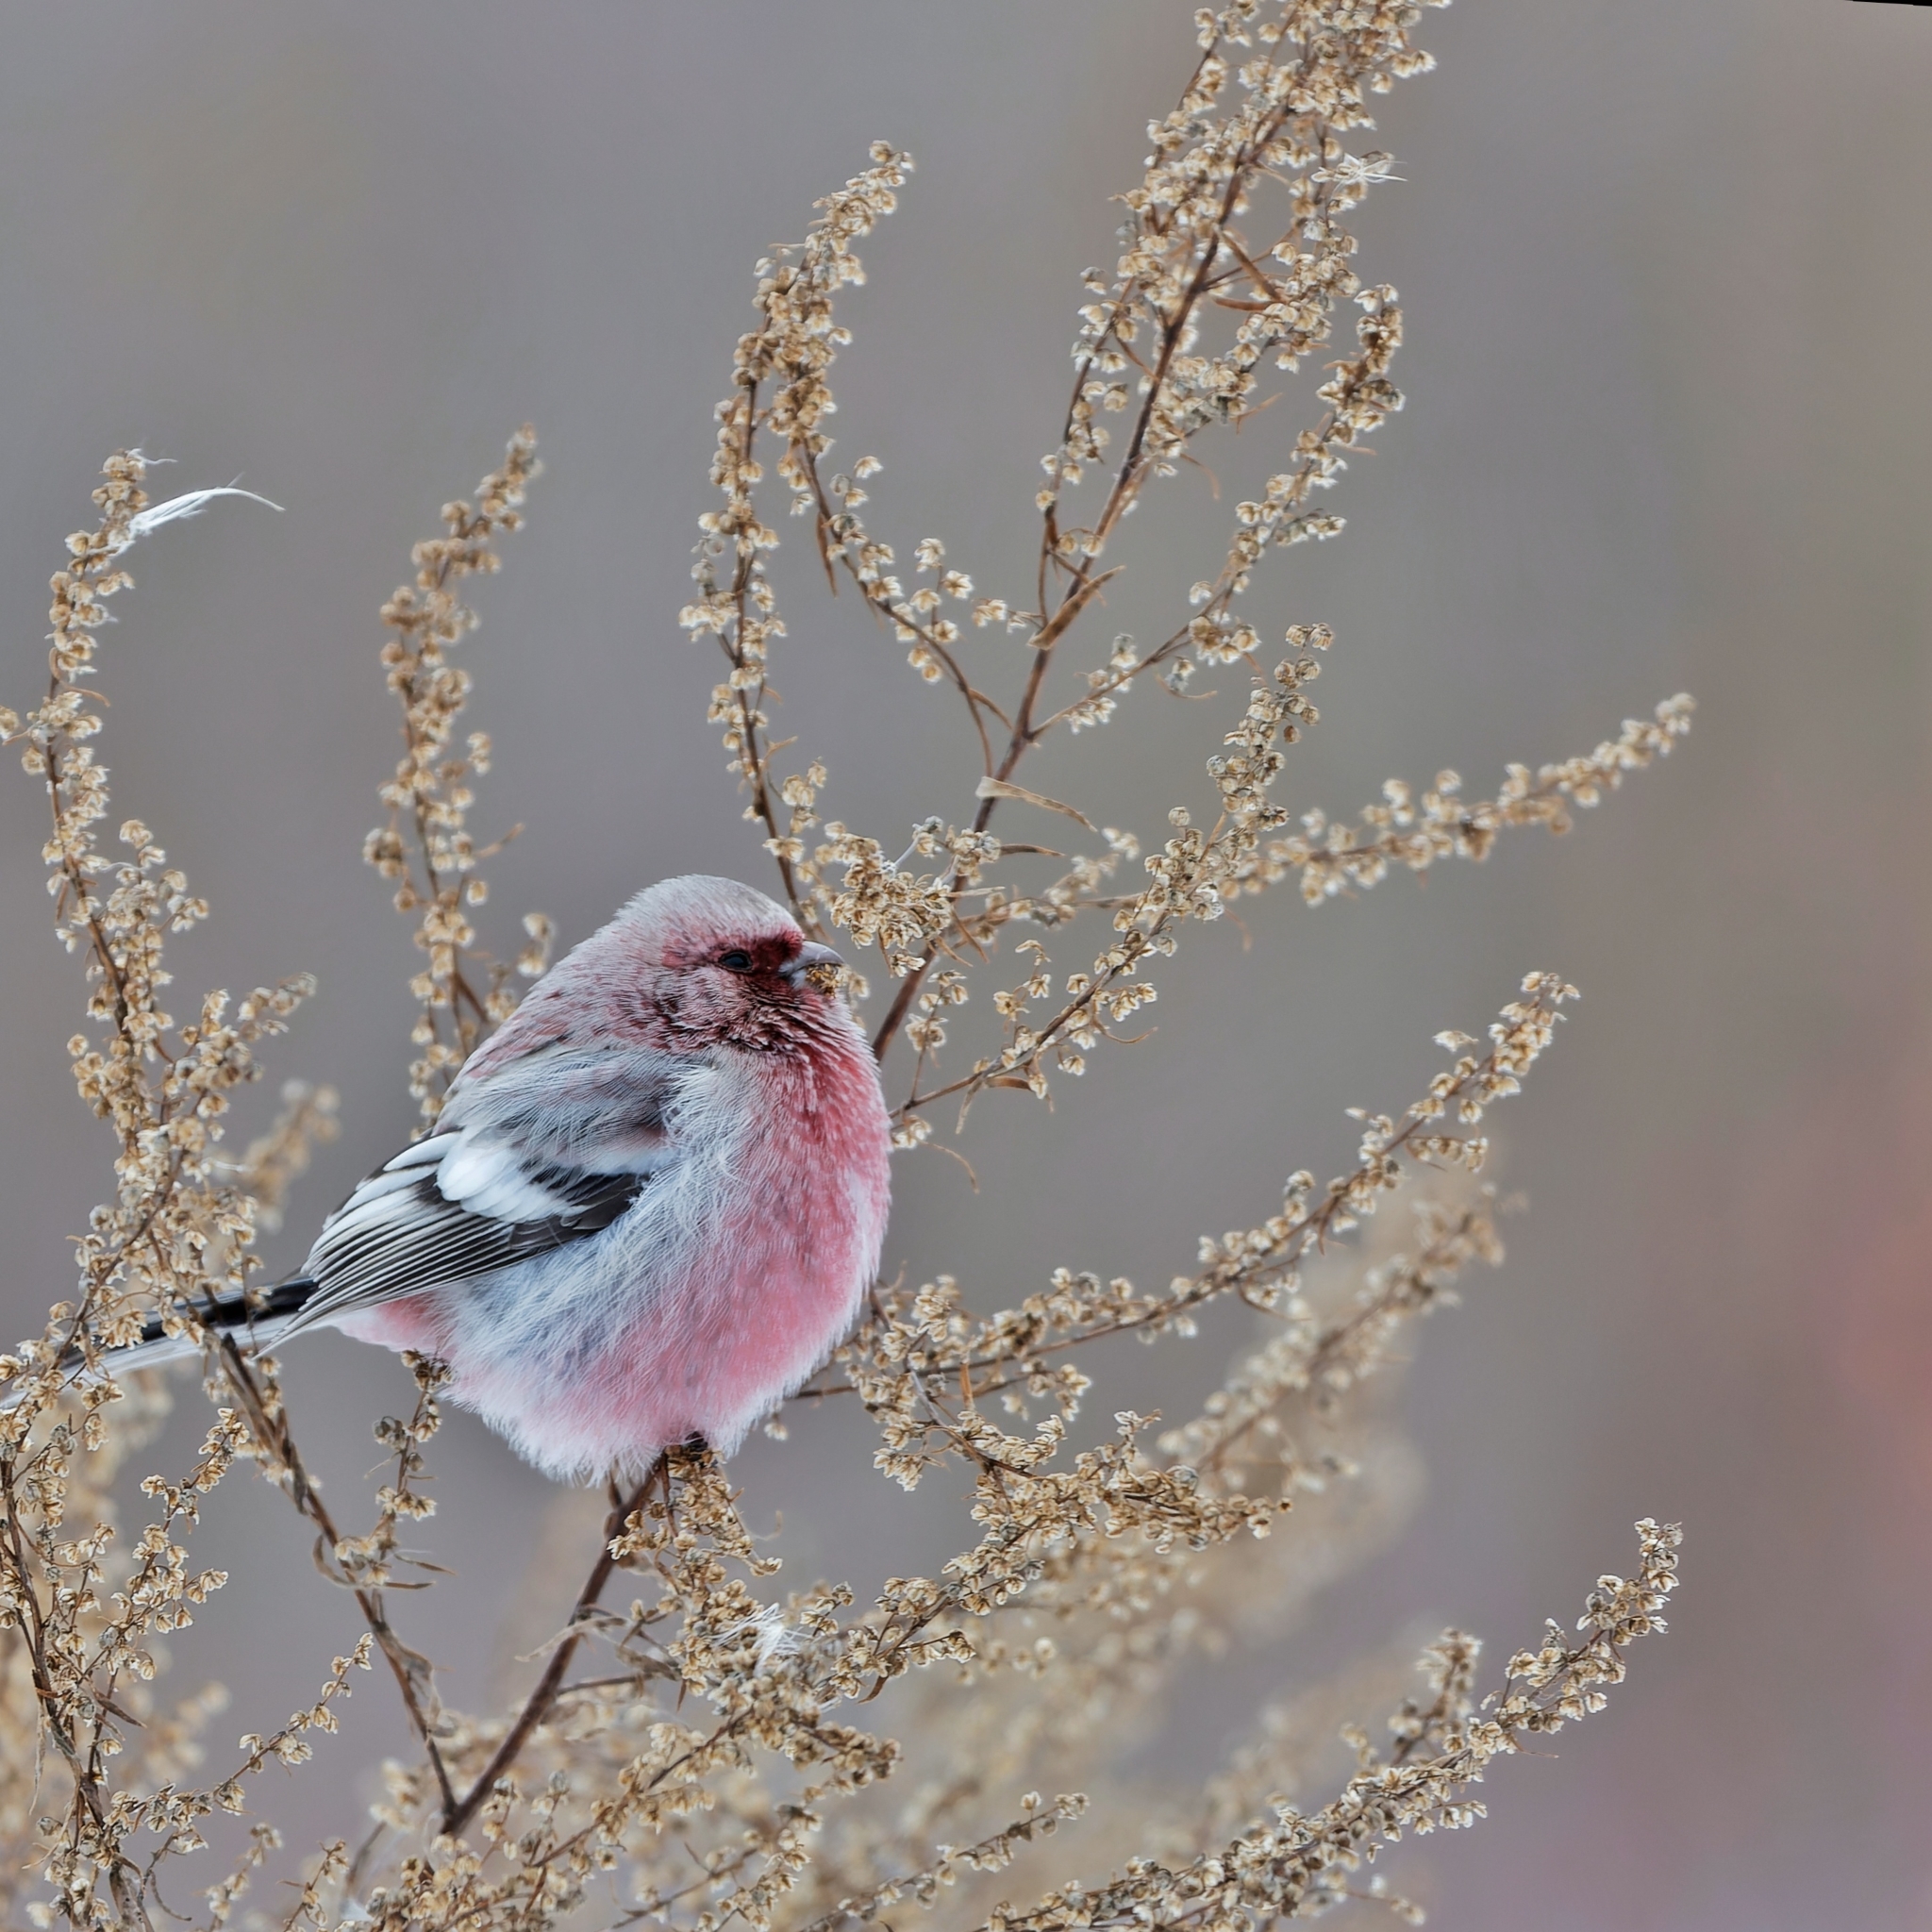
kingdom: Animalia
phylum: Chordata
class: Aves
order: Passeriformes
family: Fringillidae
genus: Carpodacus
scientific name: Carpodacus sibiricus
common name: Long-tailed rosefinch
